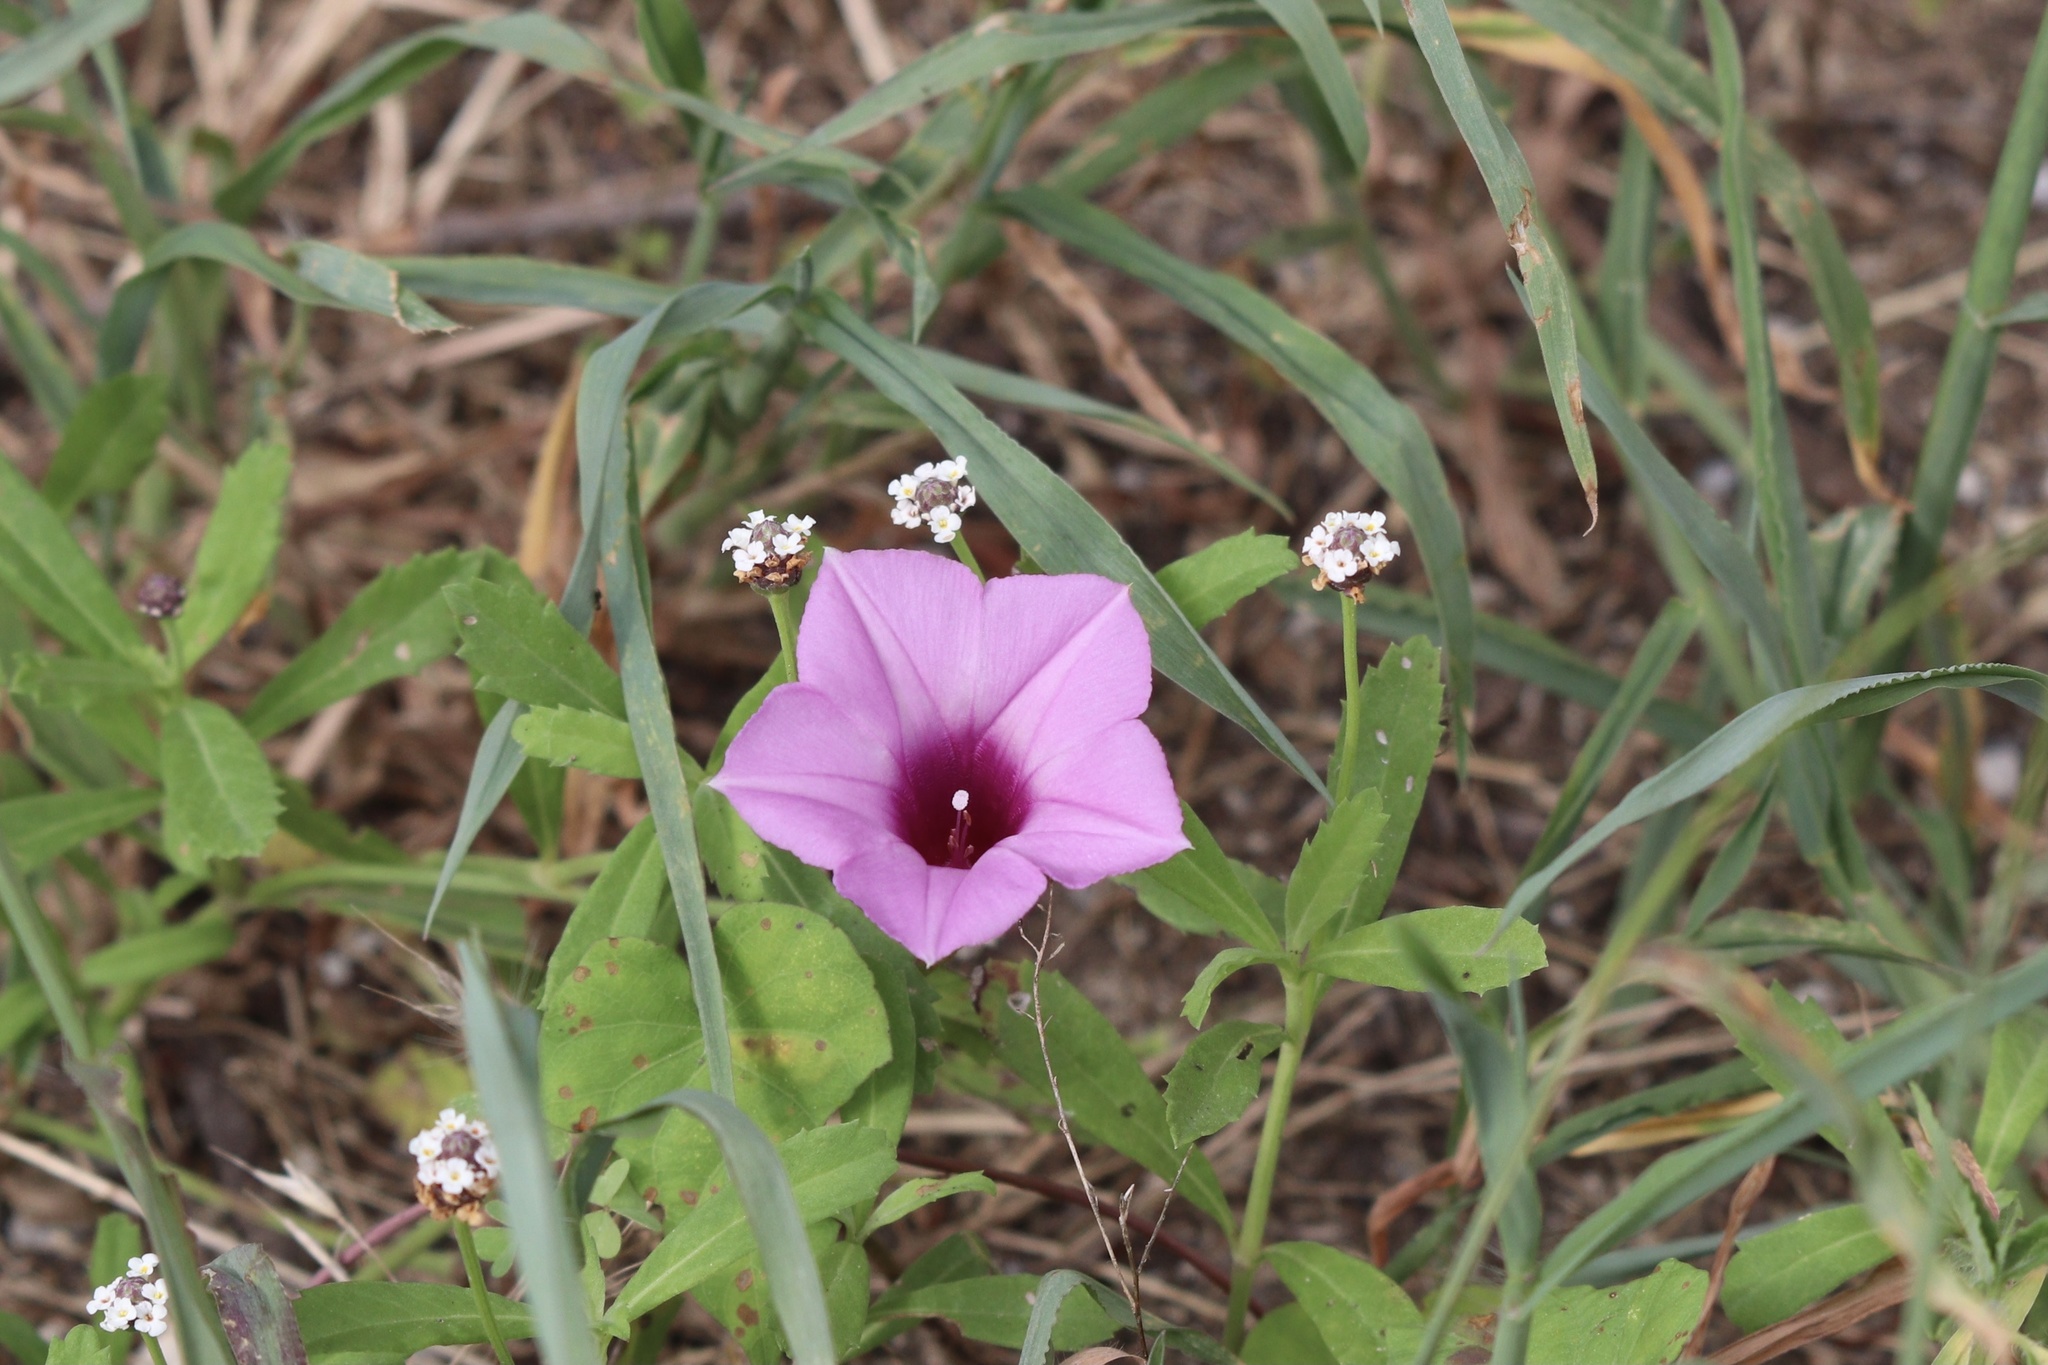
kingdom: Plantae
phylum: Tracheophyta
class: Magnoliopsida
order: Solanales
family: Convolvulaceae
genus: Ipomoea
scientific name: Ipomoea cordatotriloba
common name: Cotton morning glory
